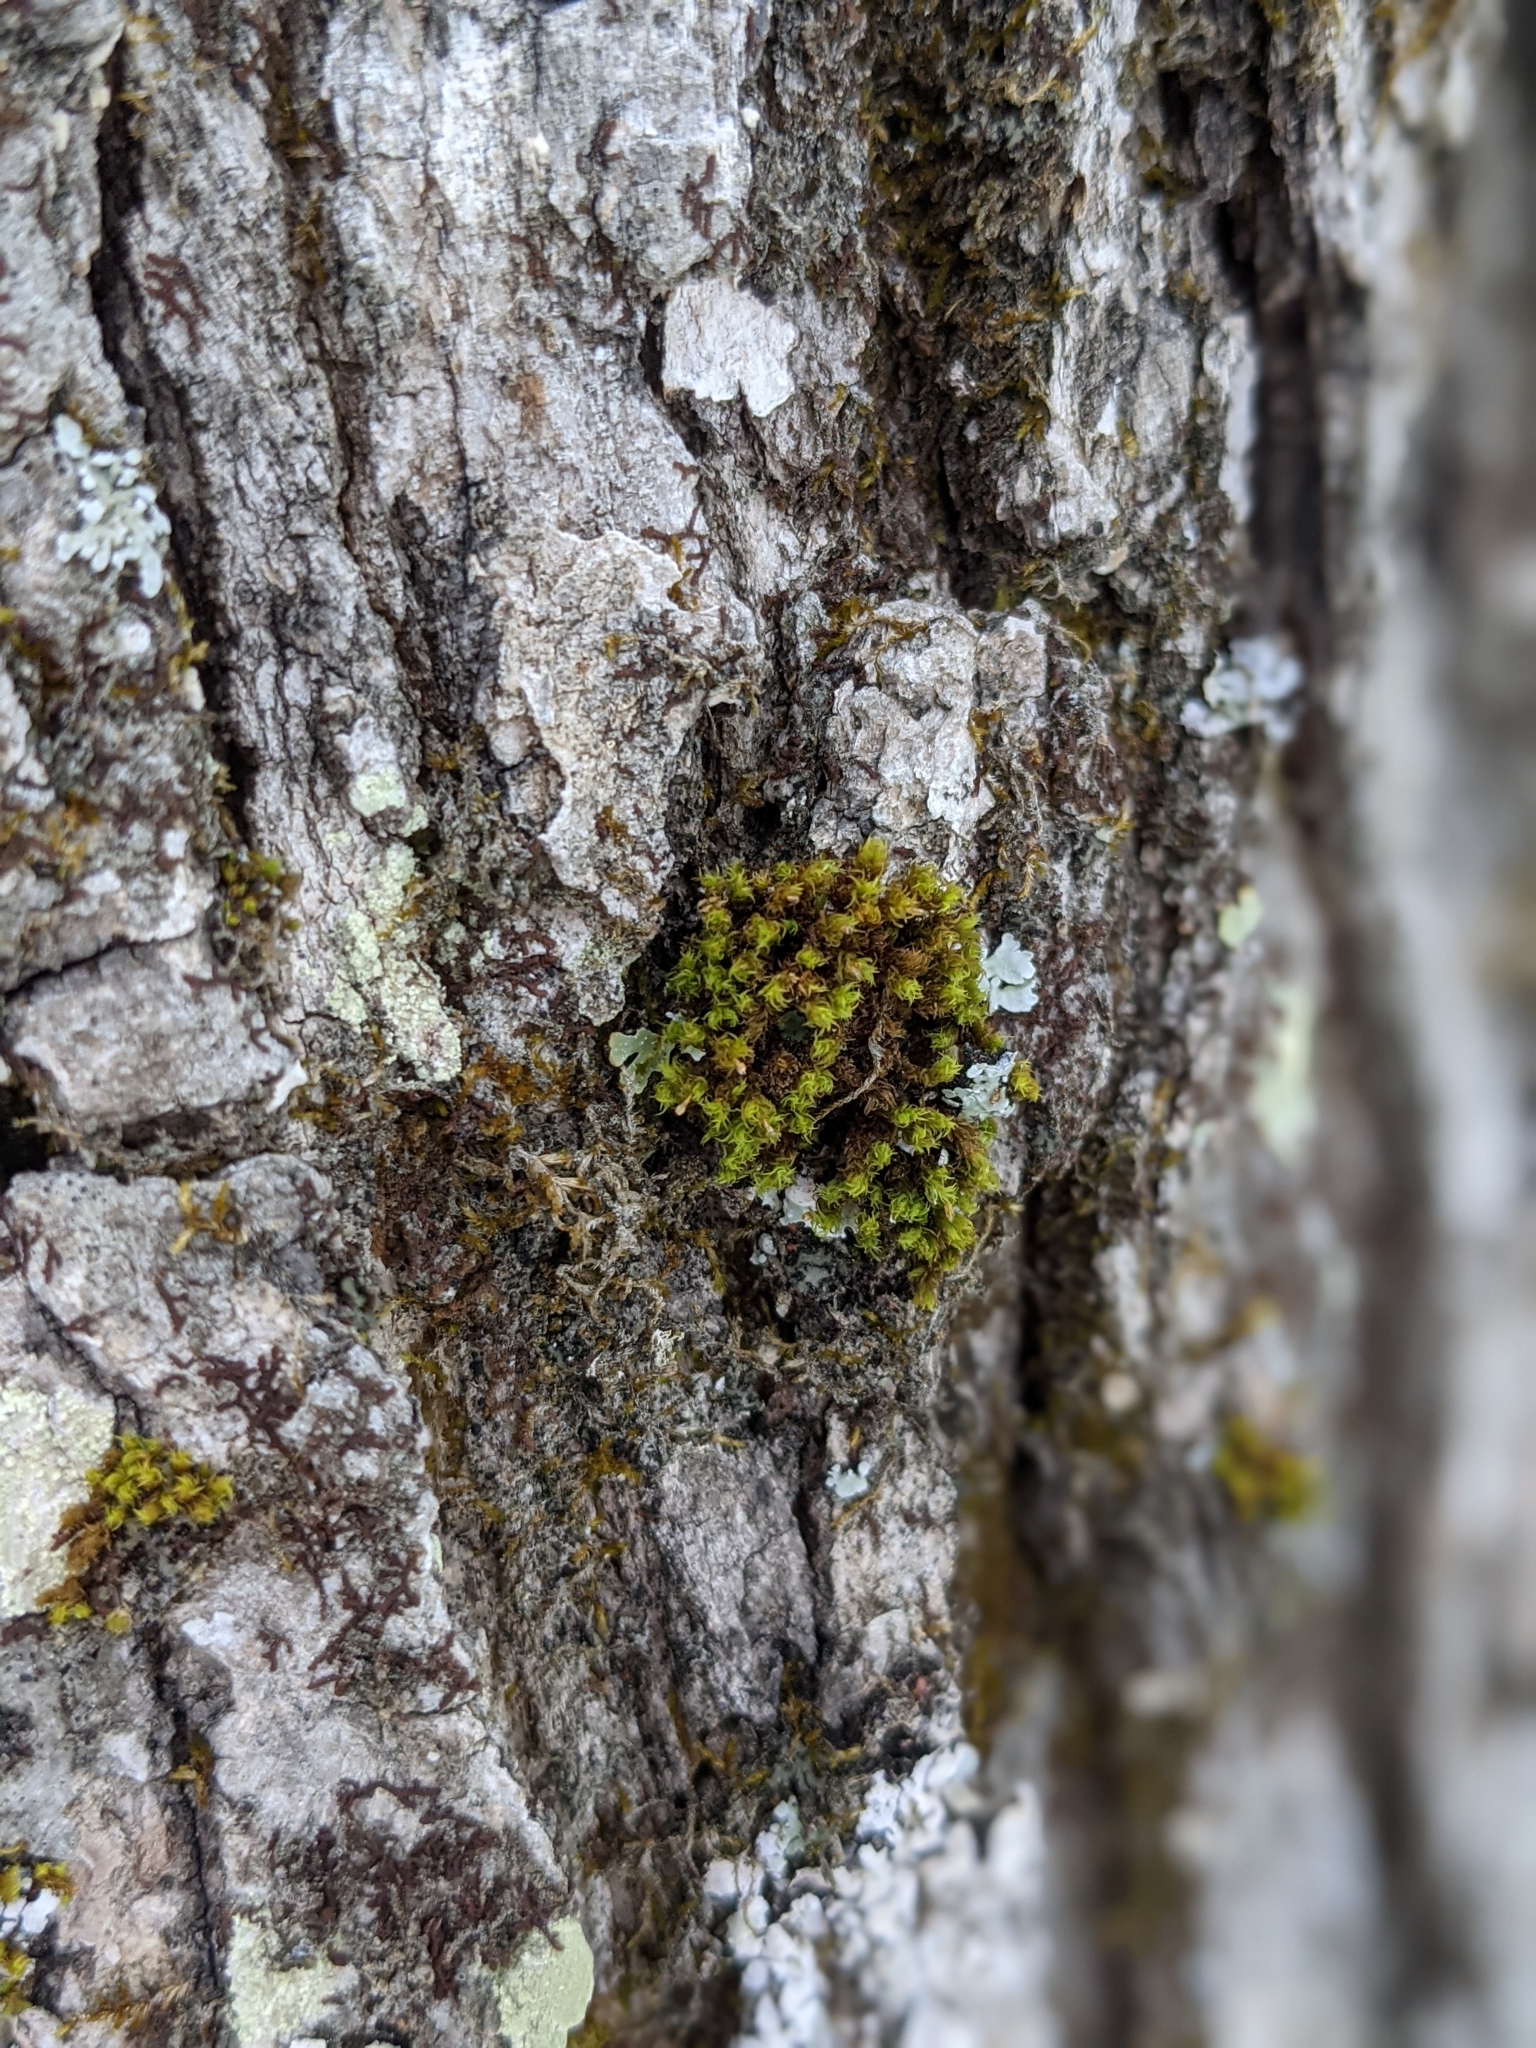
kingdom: Plantae
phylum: Bryophyta
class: Bryopsida
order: Orthotrichales
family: Orthotrichaceae
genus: Ulota
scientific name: Ulota crispa
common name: Crisped pincushion moss
